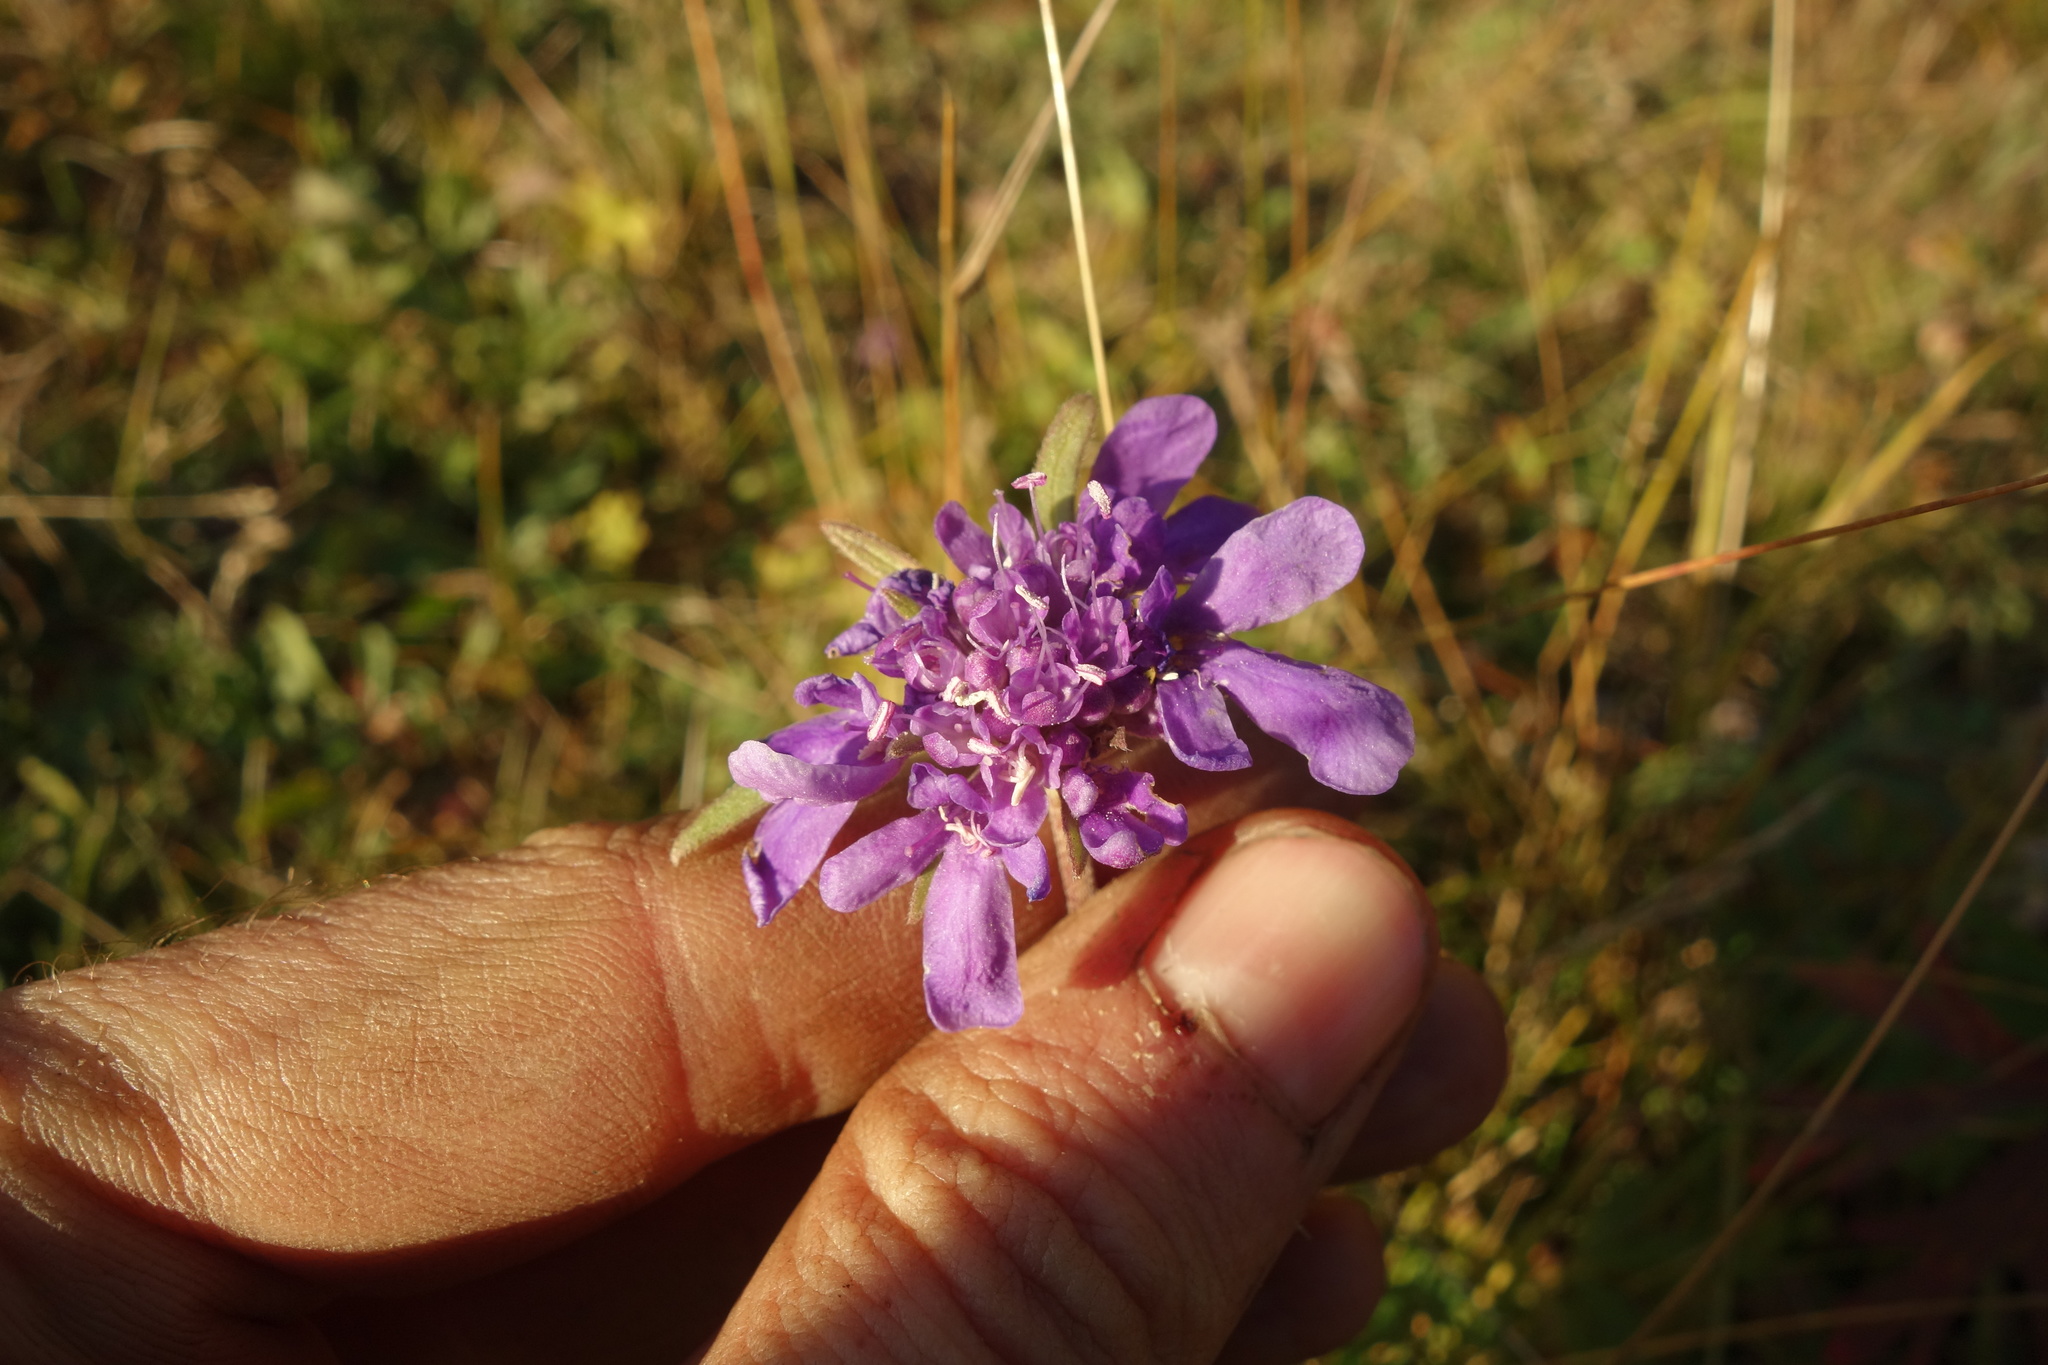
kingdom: Plantae
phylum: Tracheophyta
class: Magnoliopsida
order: Dipsacales
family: Caprifoliaceae
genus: Scabiosa
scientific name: Scabiosa comosa
